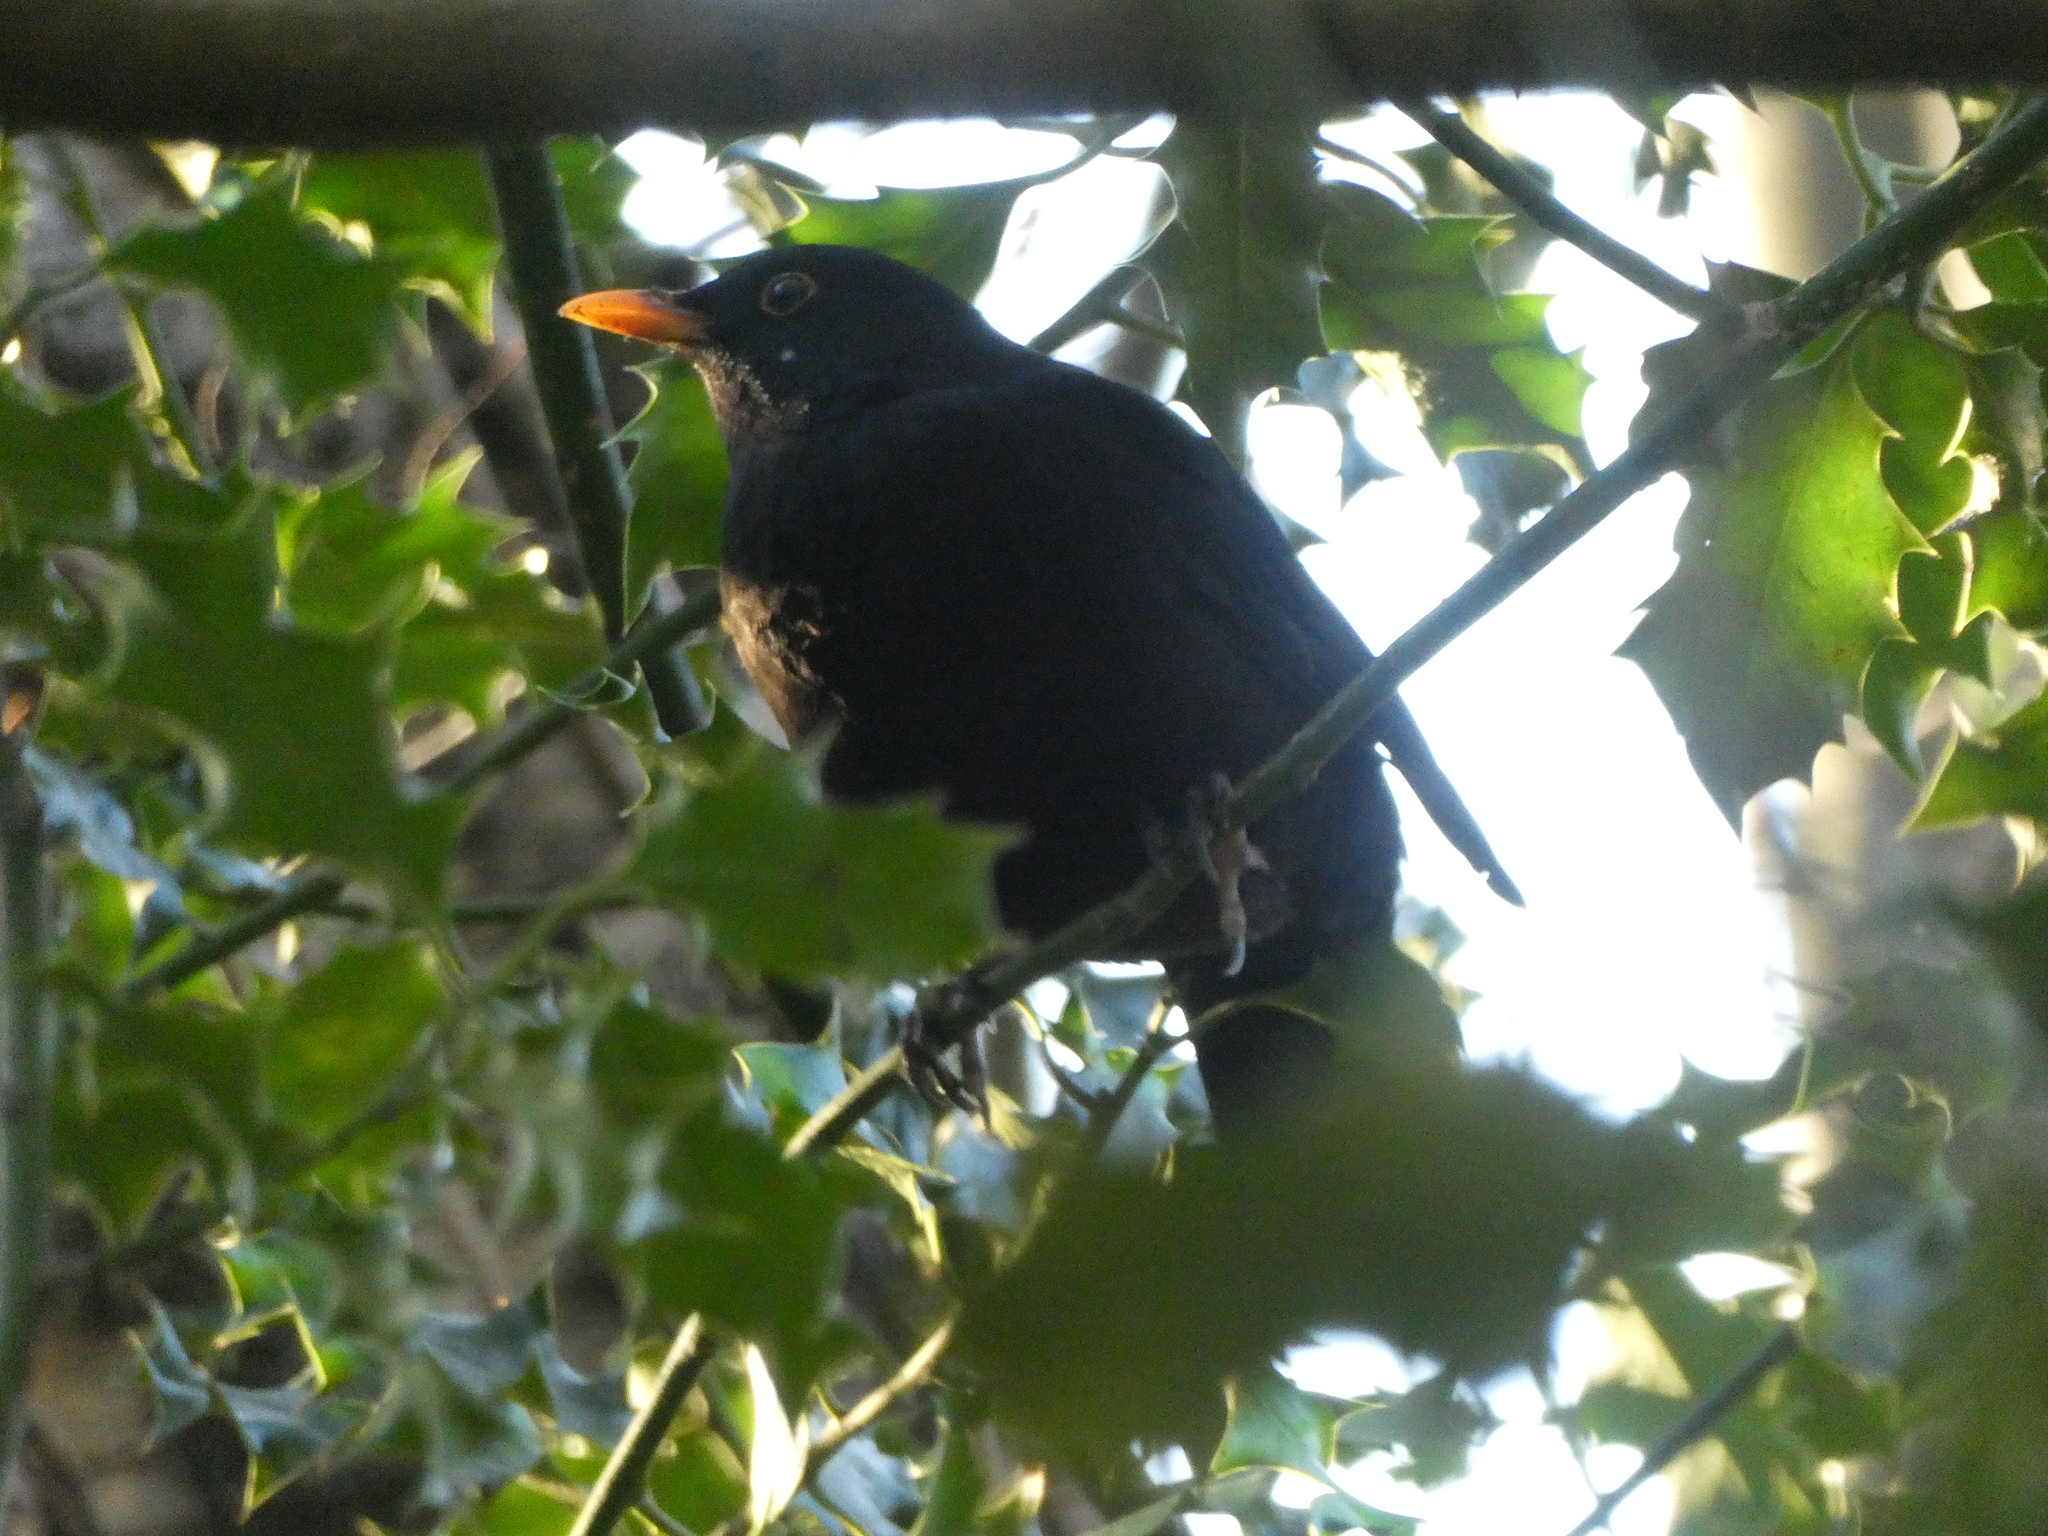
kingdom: Animalia
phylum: Chordata
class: Aves
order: Passeriformes
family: Turdidae
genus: Turdus
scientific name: Turdus merula
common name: Common blackbird
